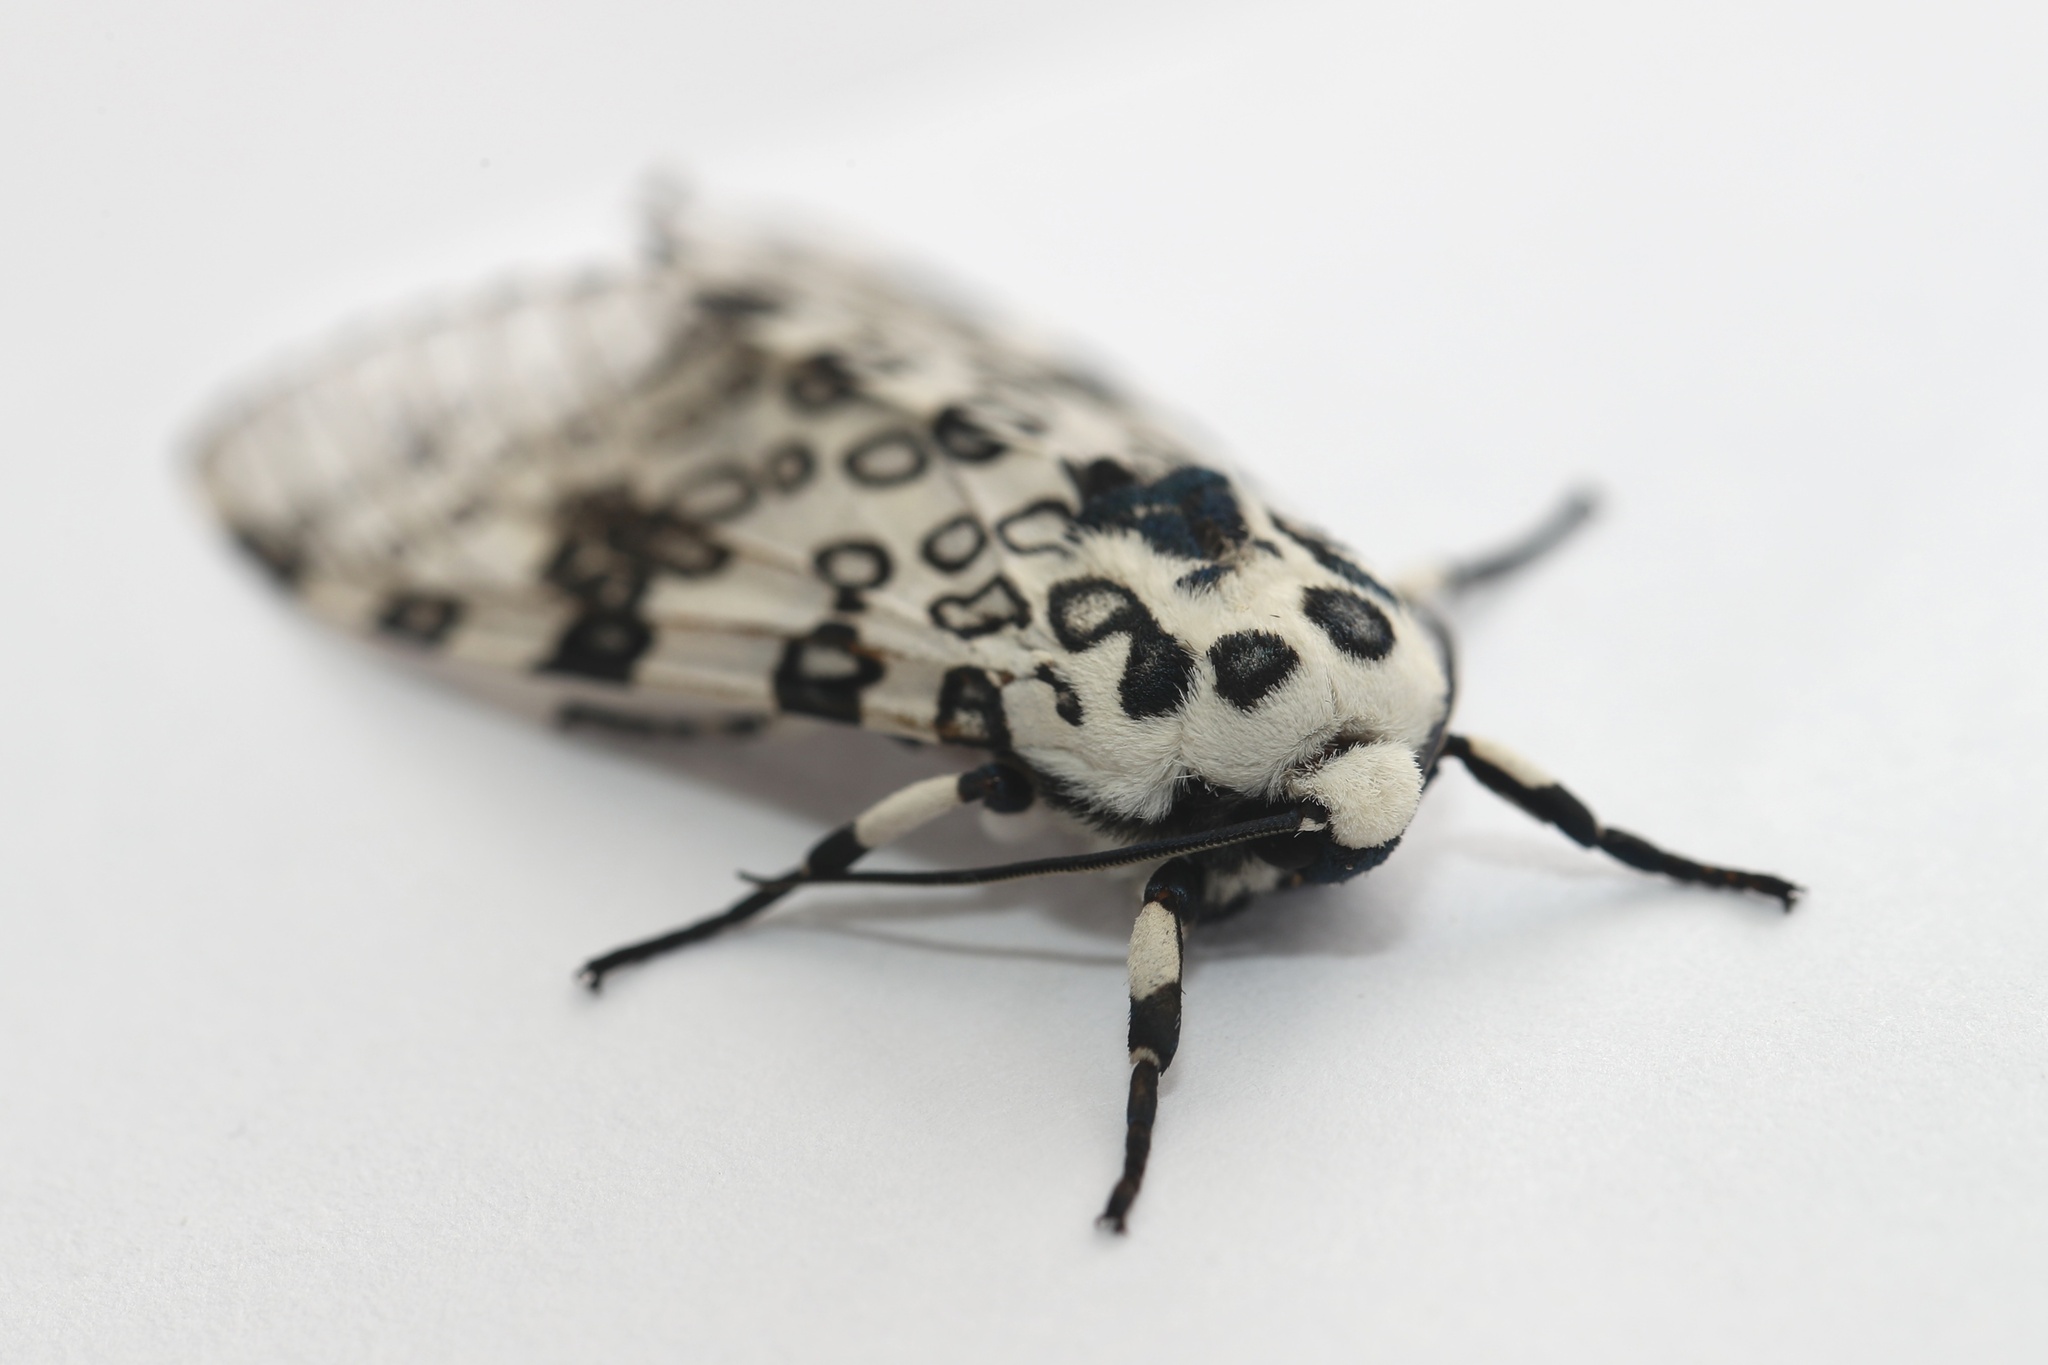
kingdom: Animalia
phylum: Arthropoda
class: Insecta
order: Lepidoptera
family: Erebidae
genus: Hypercompe
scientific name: Hypercompe scribonia
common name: Giant leopard moth
